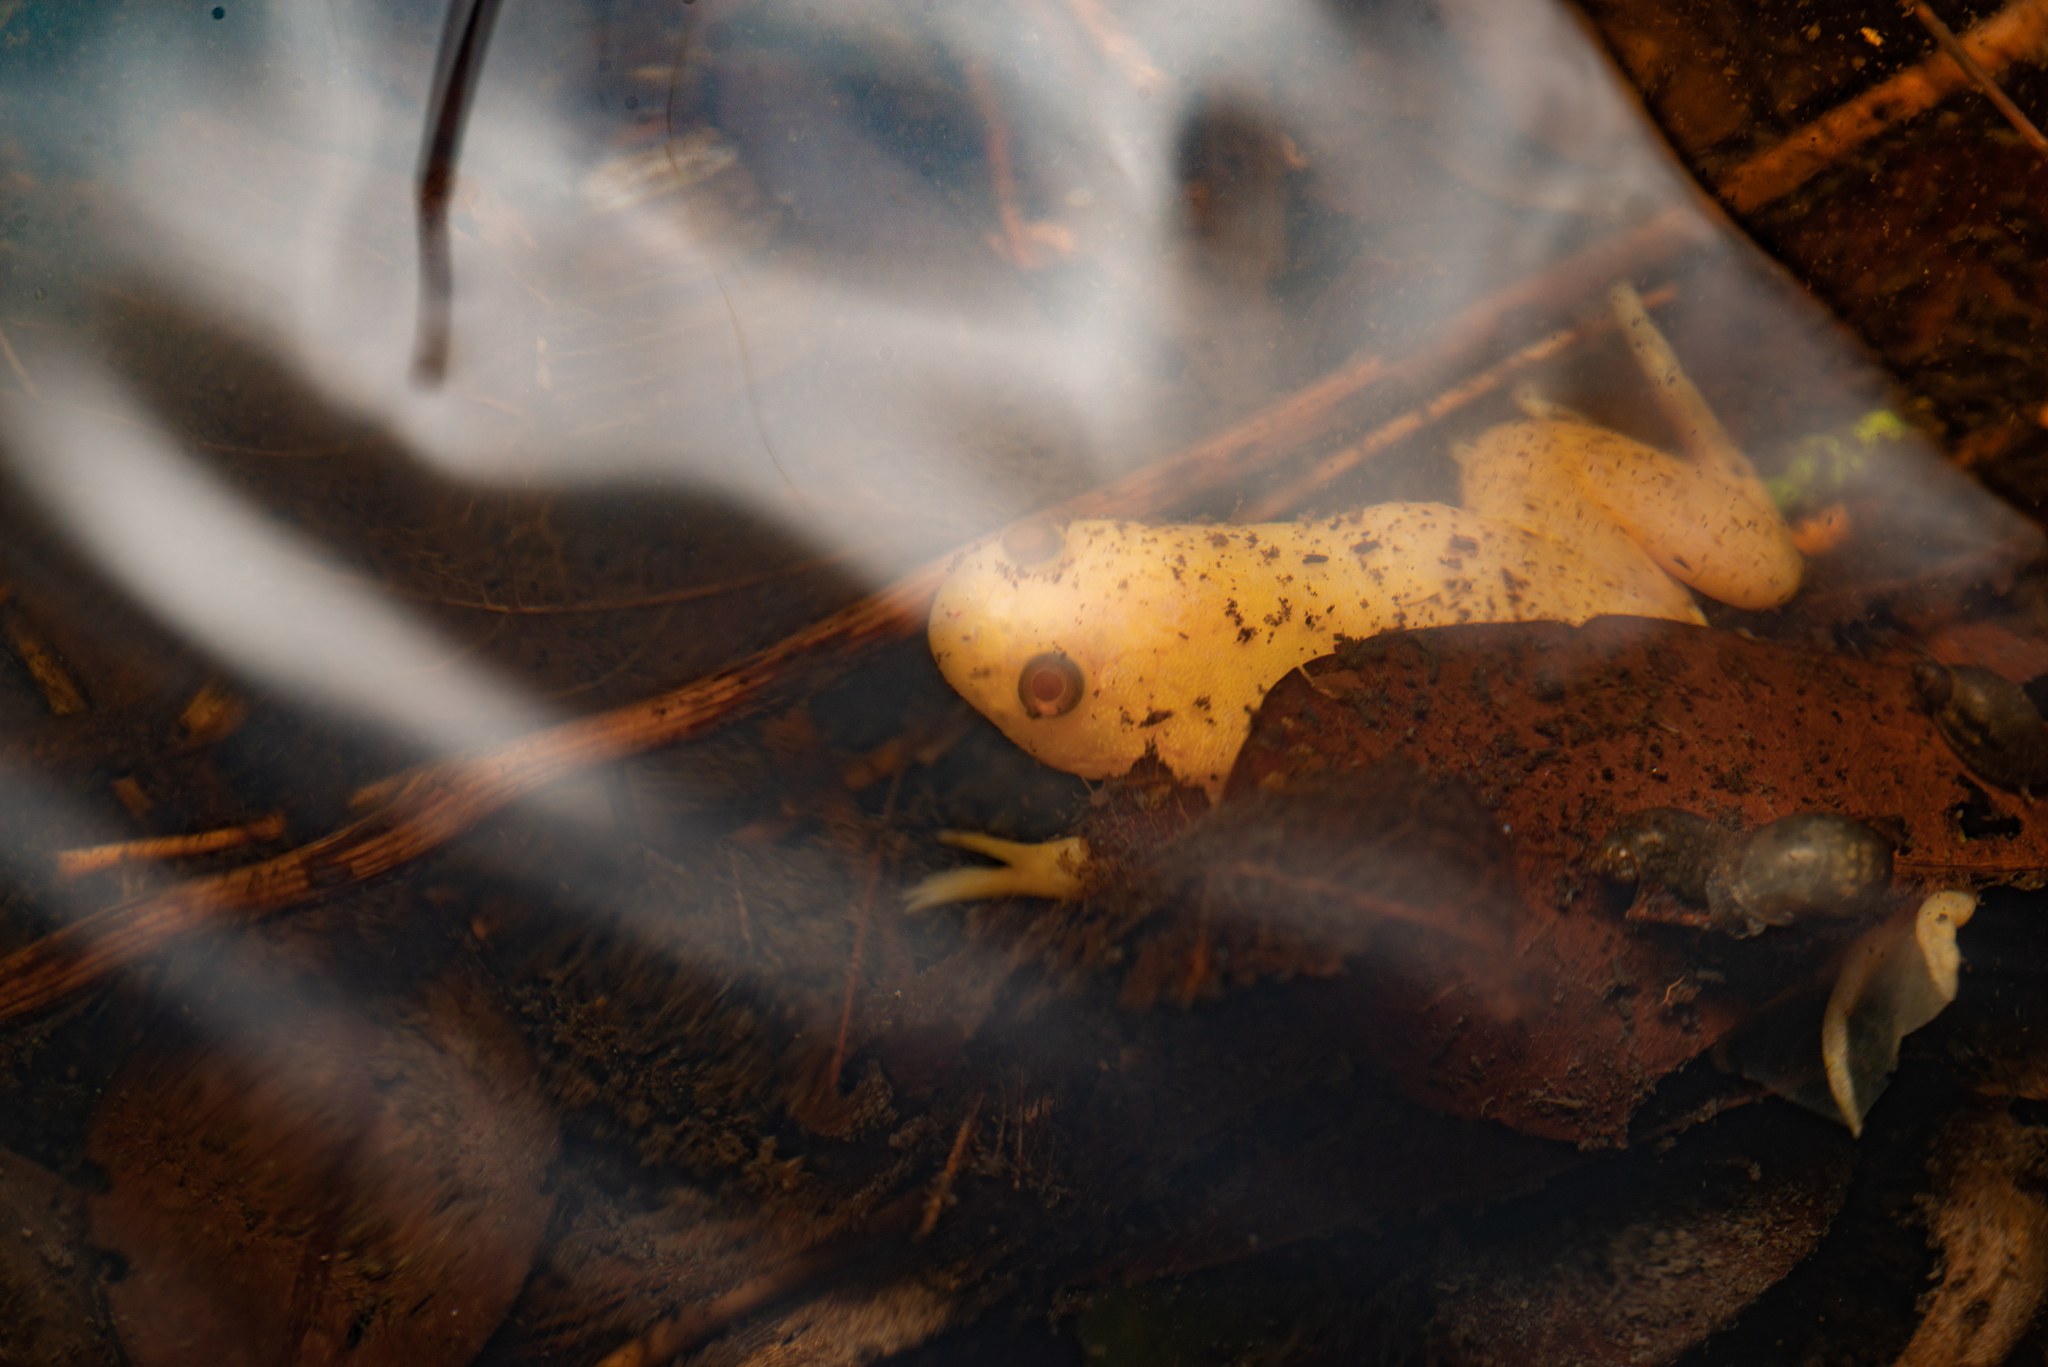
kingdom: Animalia
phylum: Chordata
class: Amphibia
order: Anura
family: Pipidae
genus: Xenopus
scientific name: Xenopus laevis
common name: African clawed frog
